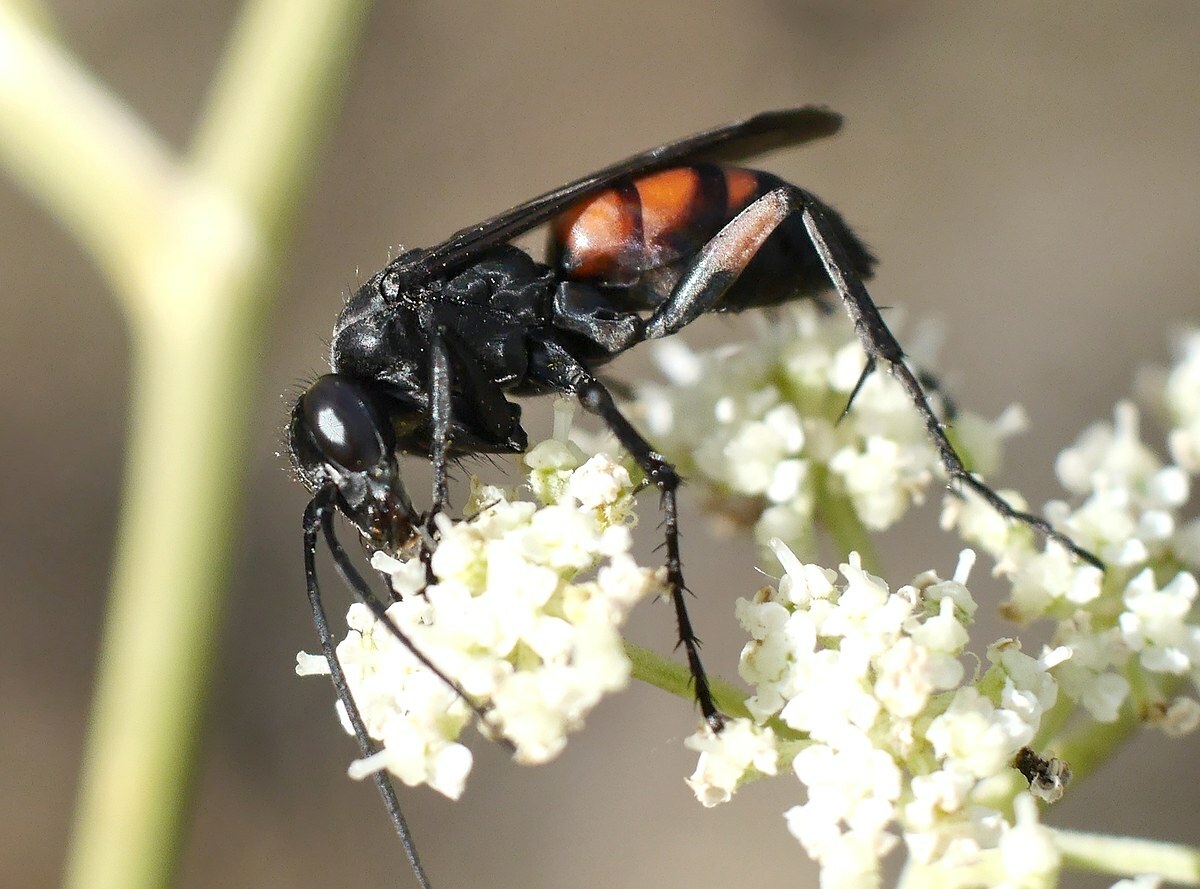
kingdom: Animalia
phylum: Arthropoda
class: Insecta
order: Hymenoptera
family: Pompilidae
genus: Anoplius
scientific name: Anoplius viaticus
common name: Black banded spider wasp
